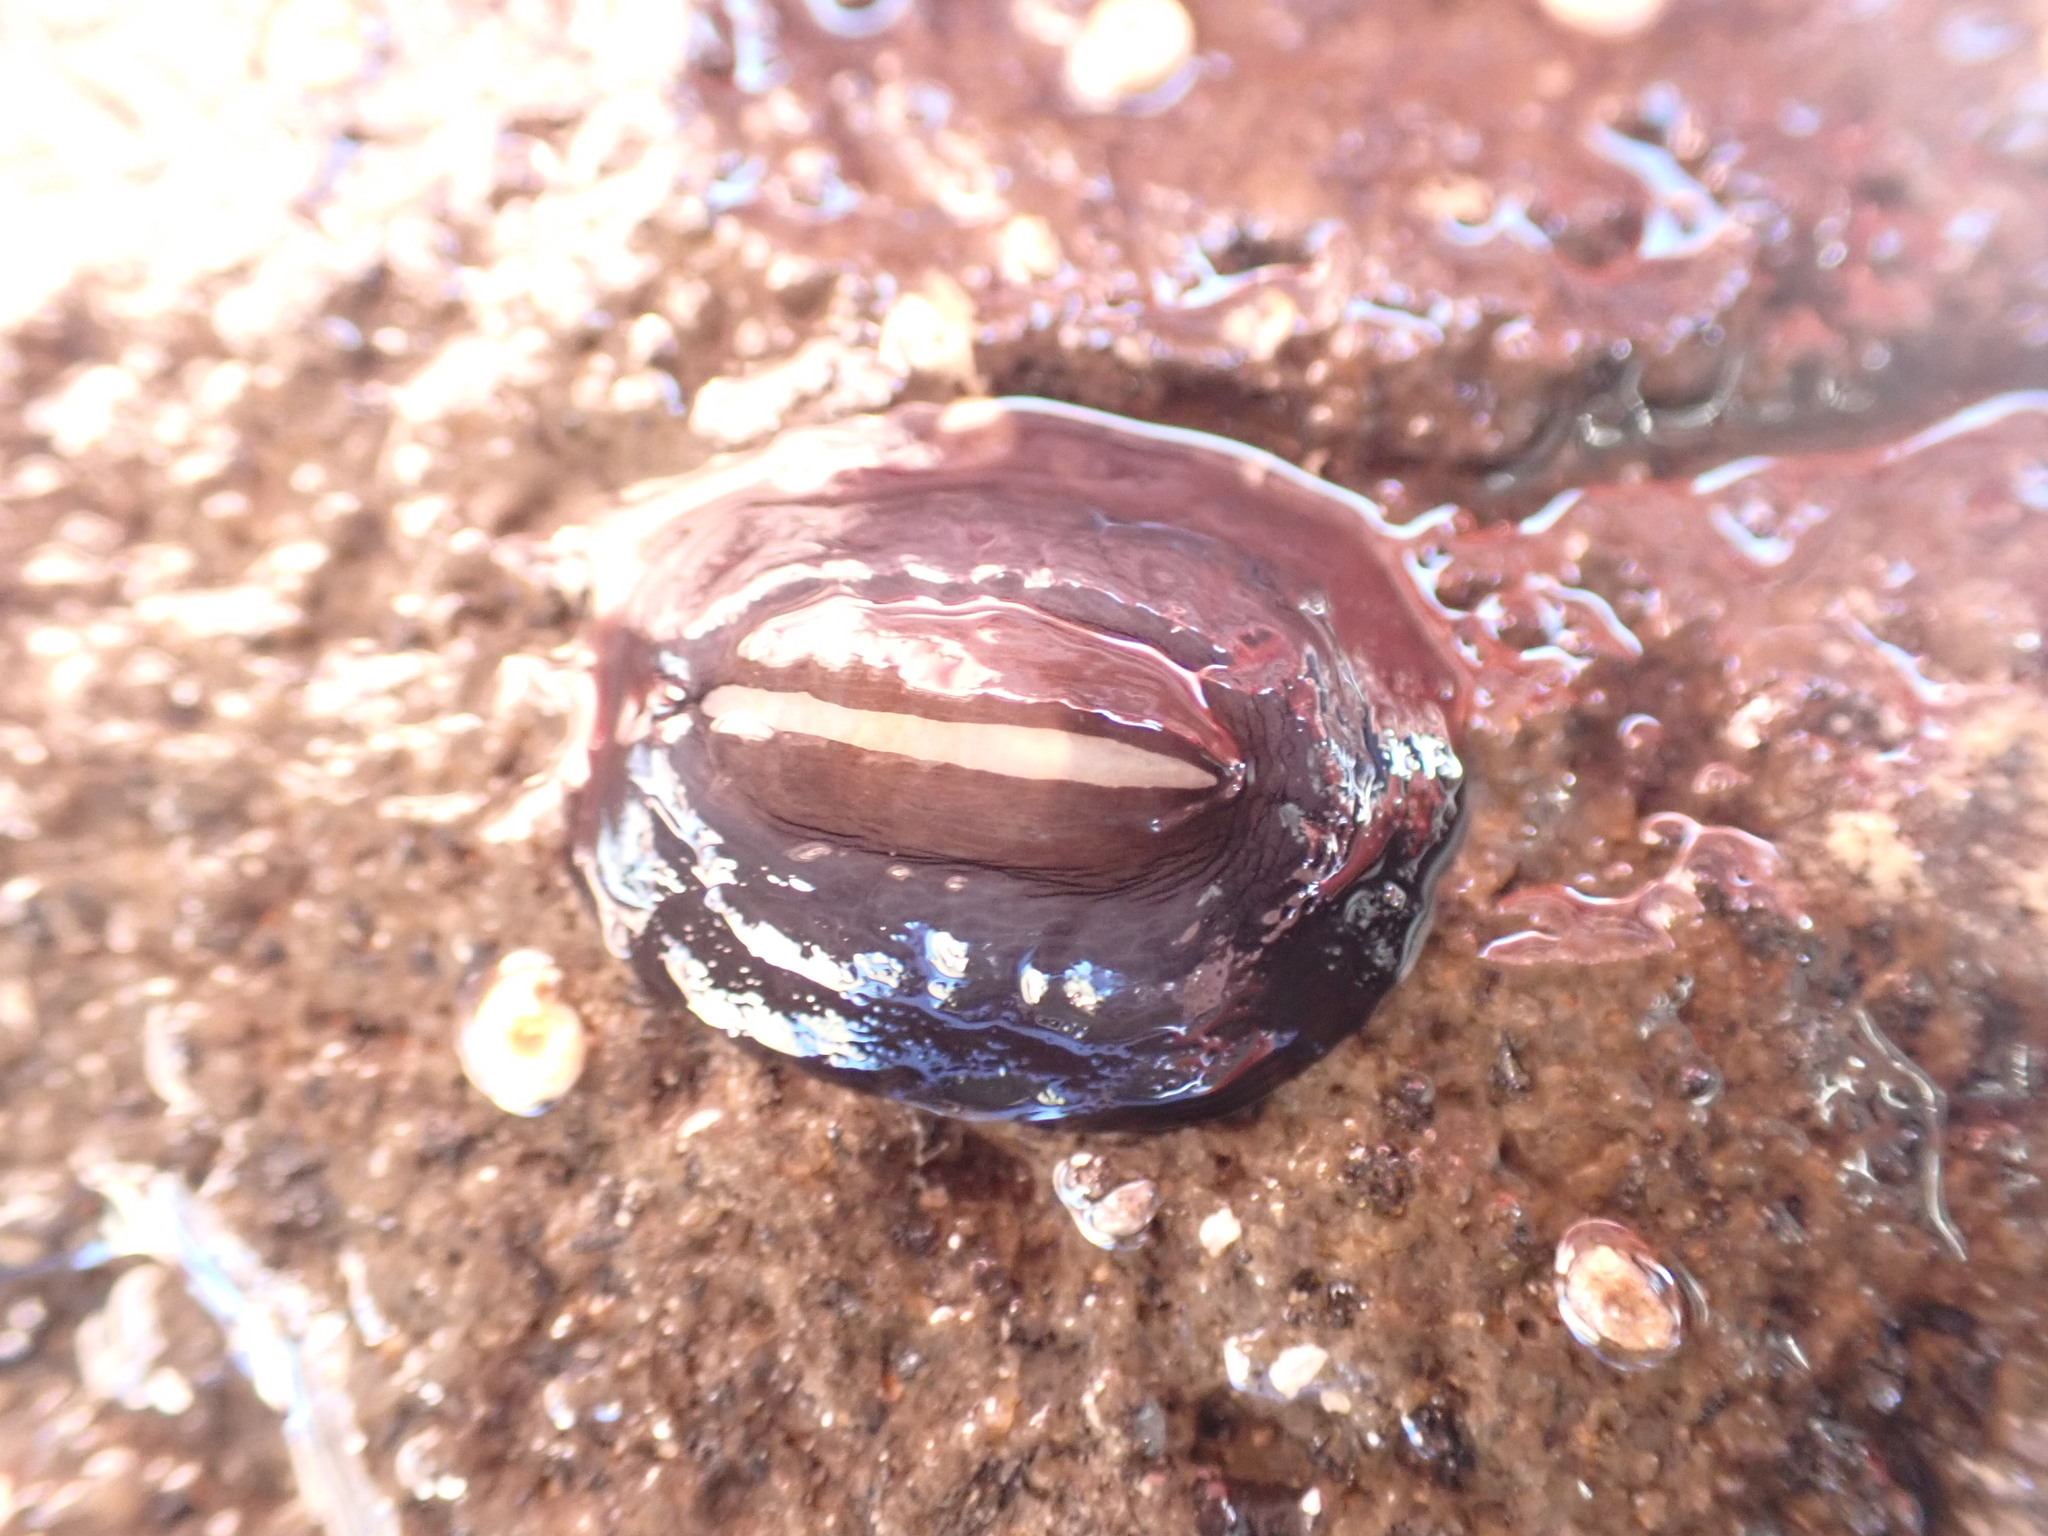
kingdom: Animalia
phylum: Mollusca
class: Gastropoda
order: Lepetellida
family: Fissurellidae
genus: Scutus
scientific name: Scutus breviculus
